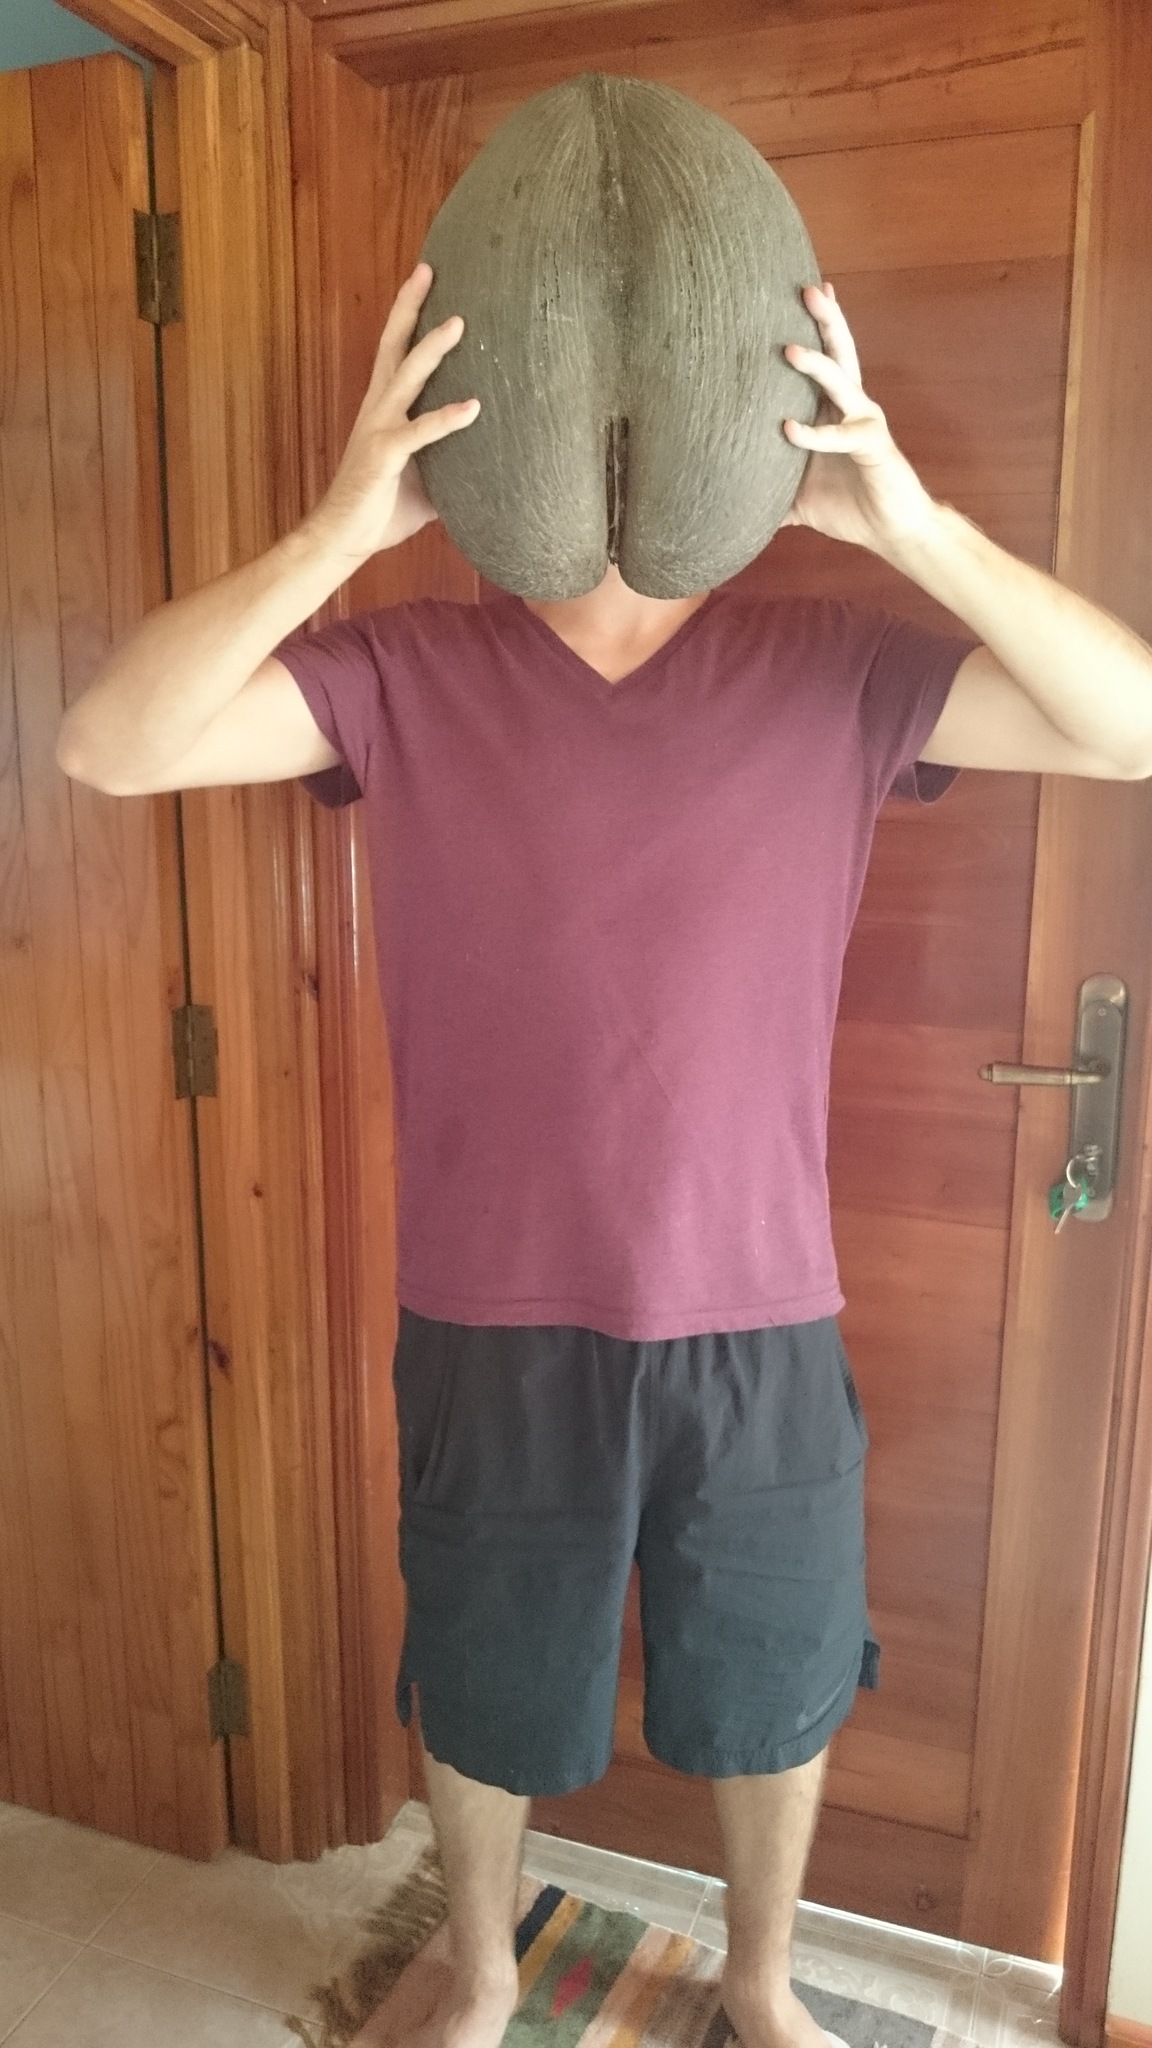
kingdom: Plantae
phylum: Tracheophyta
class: Liliopsida
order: Arecales
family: Arecaceae
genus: Lodoicea
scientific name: Lodoicea maldivica
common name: Double coconut palm
